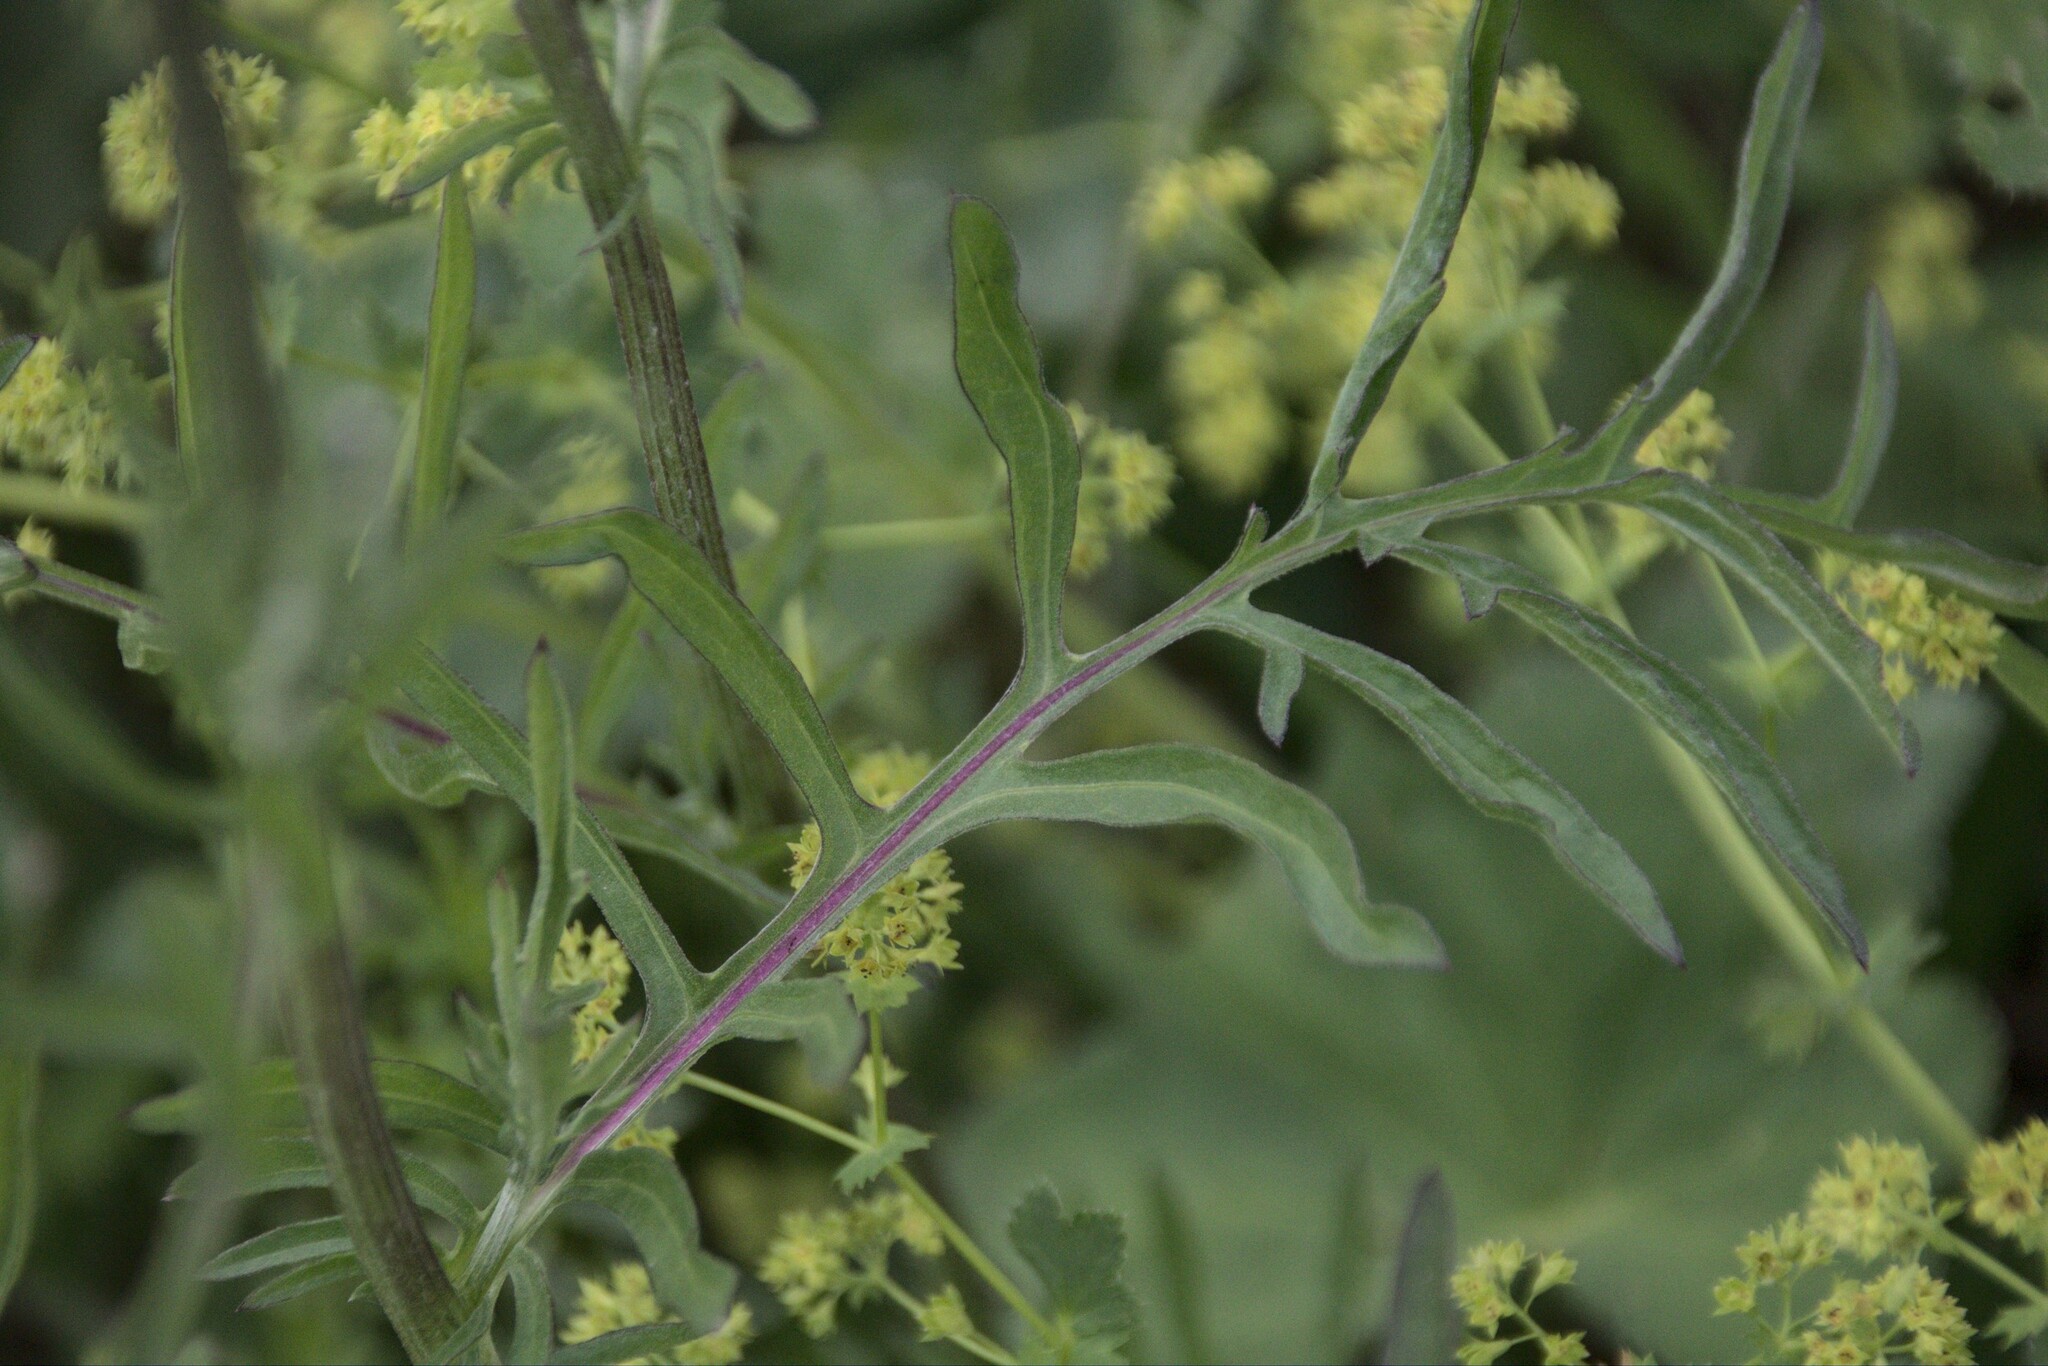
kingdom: Plantae
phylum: Tracheophyta
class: Magnoliopsida
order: Asterales
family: Asteraceae
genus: Centaurea
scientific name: Centaurea scabiosa
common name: Greater knapweed
